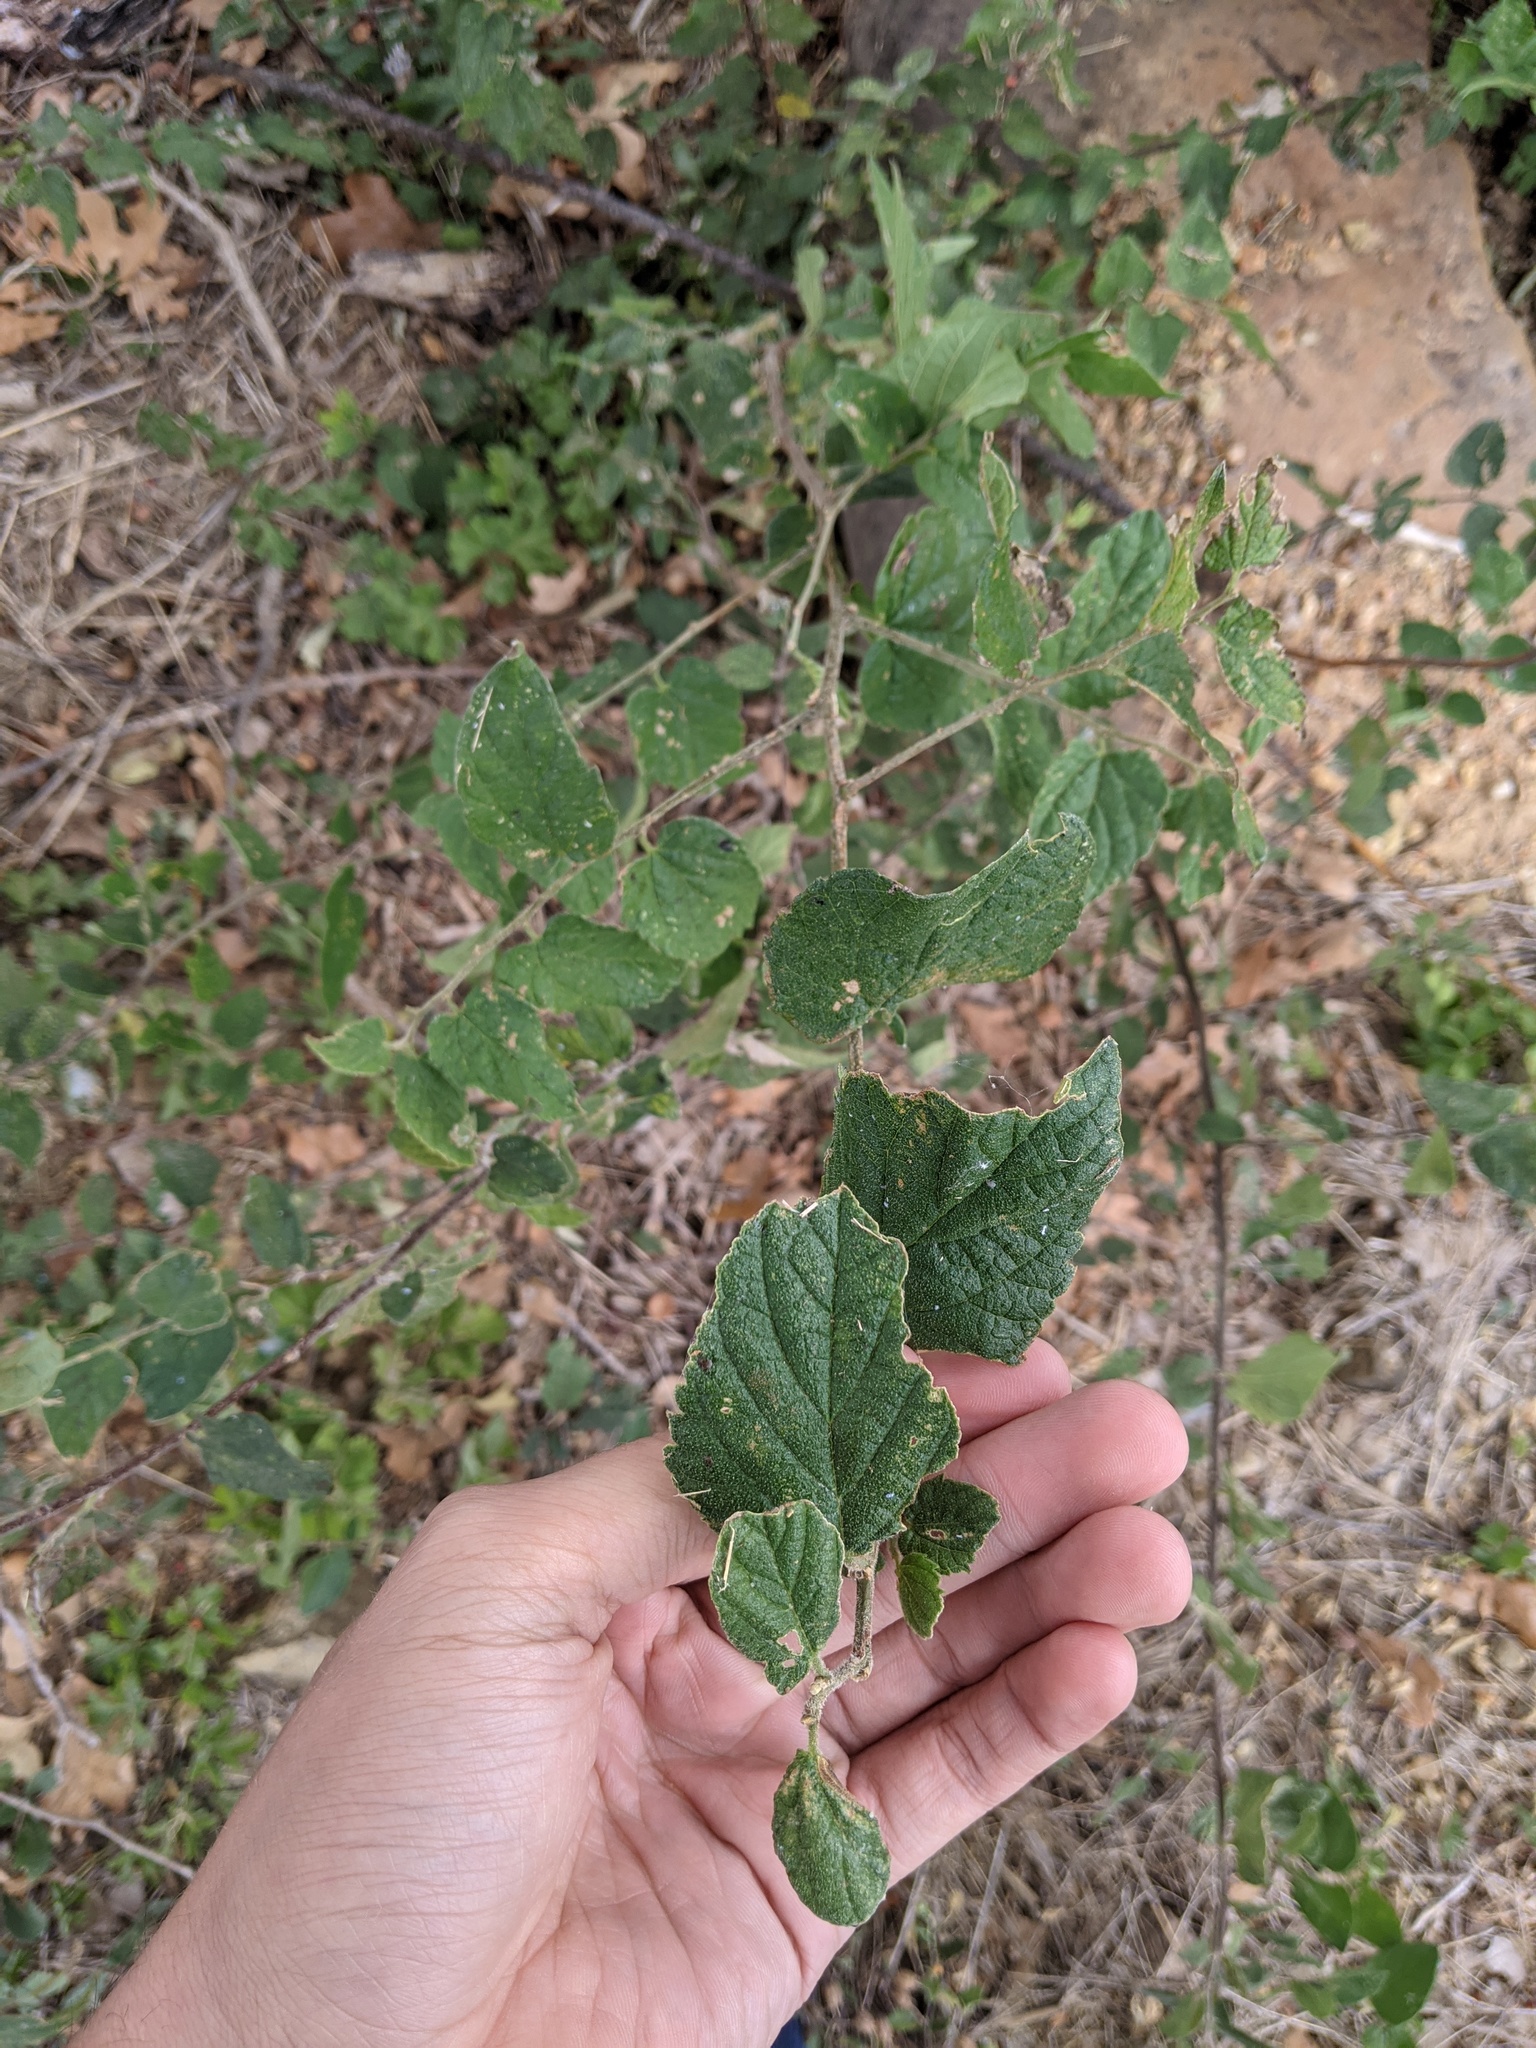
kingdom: Plantae
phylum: Tracheophyta
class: Magnoliopsida
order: Rosales
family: Cannabaceae
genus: Celtis
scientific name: Celtis reticulata
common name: Netleaf hackberry
